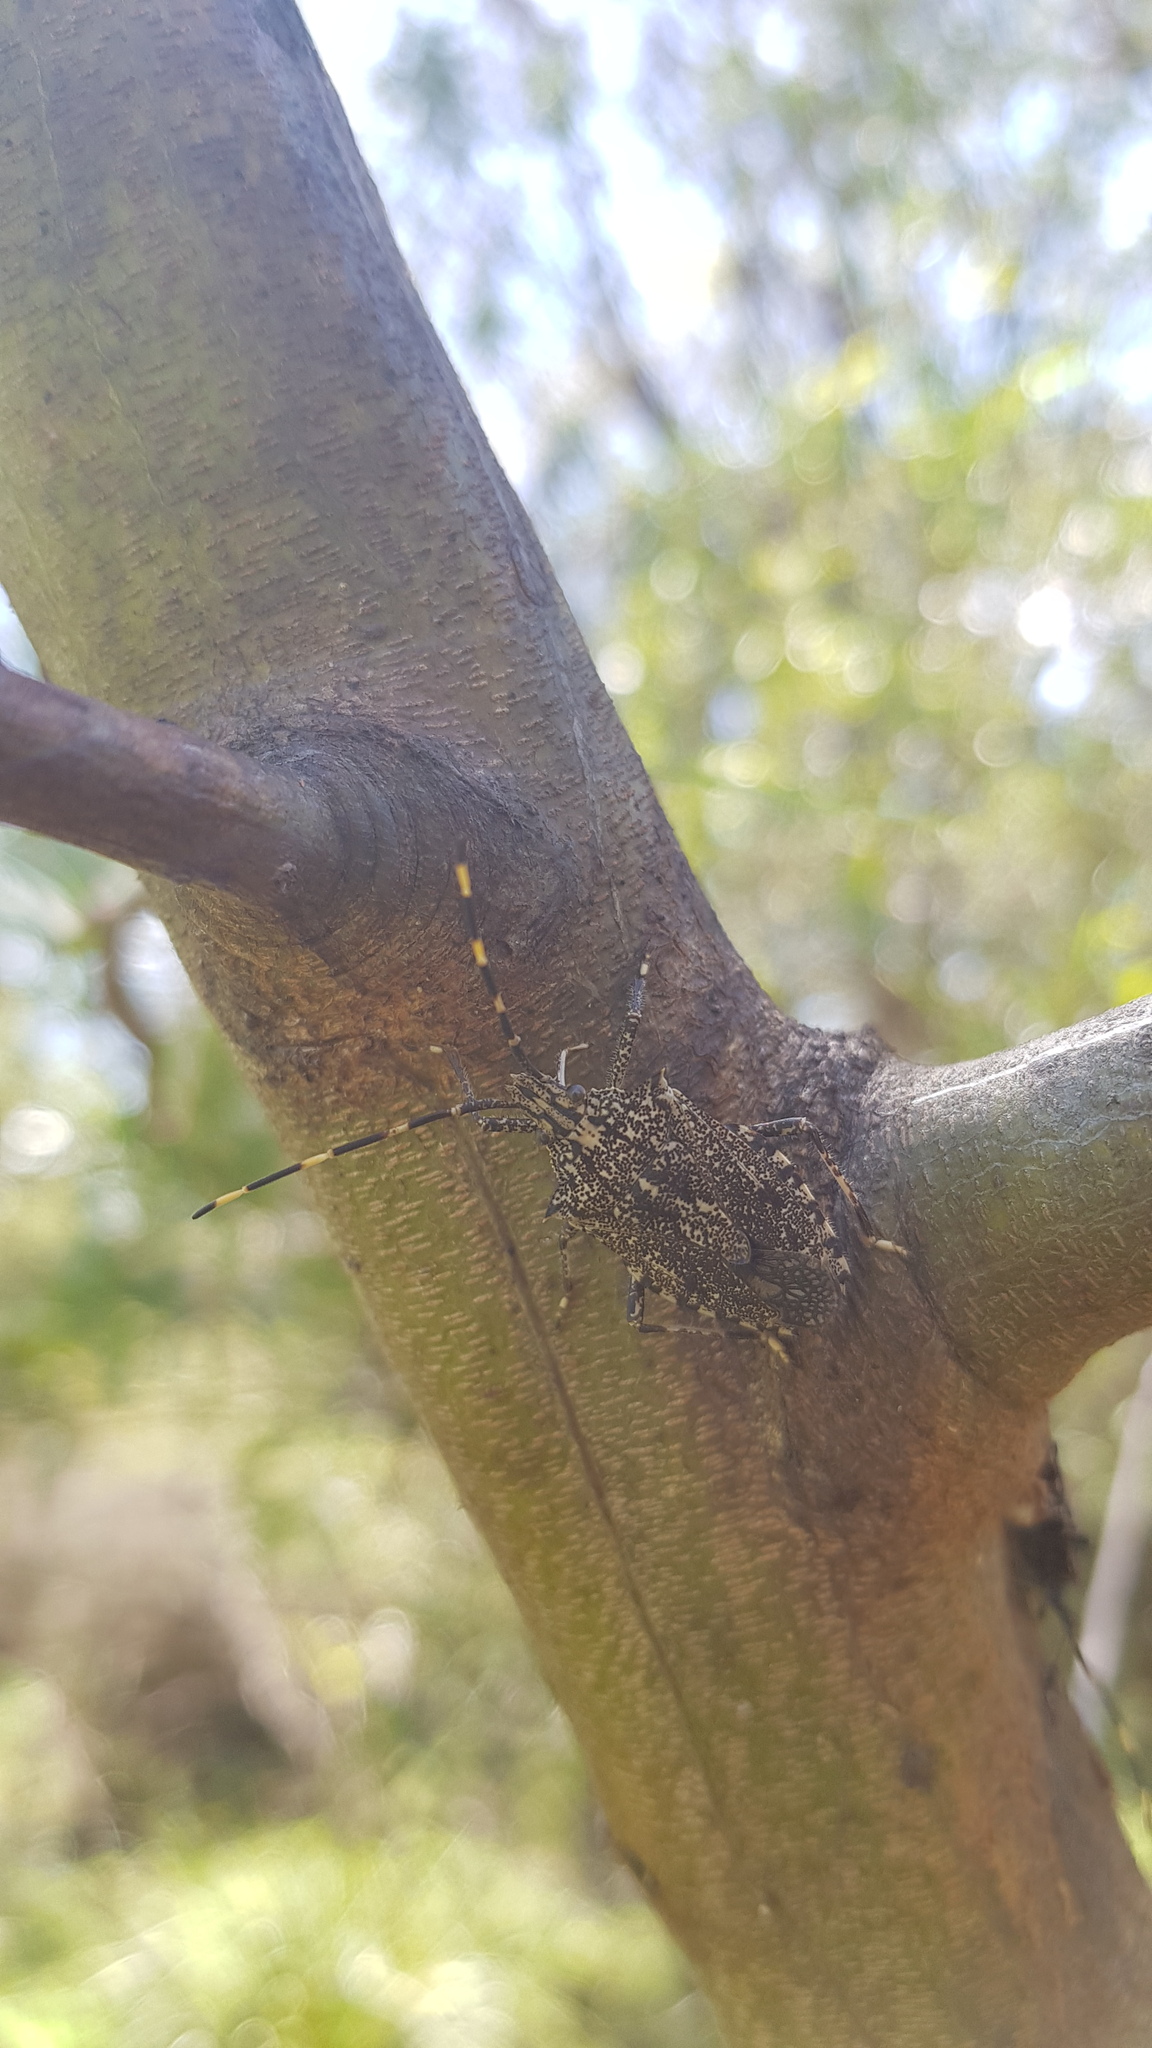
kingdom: Animalia
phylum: Arthropoda
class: Insecta
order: Hemiptera
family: Pentatomidae
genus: Alcaeus
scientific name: Alcaeus
